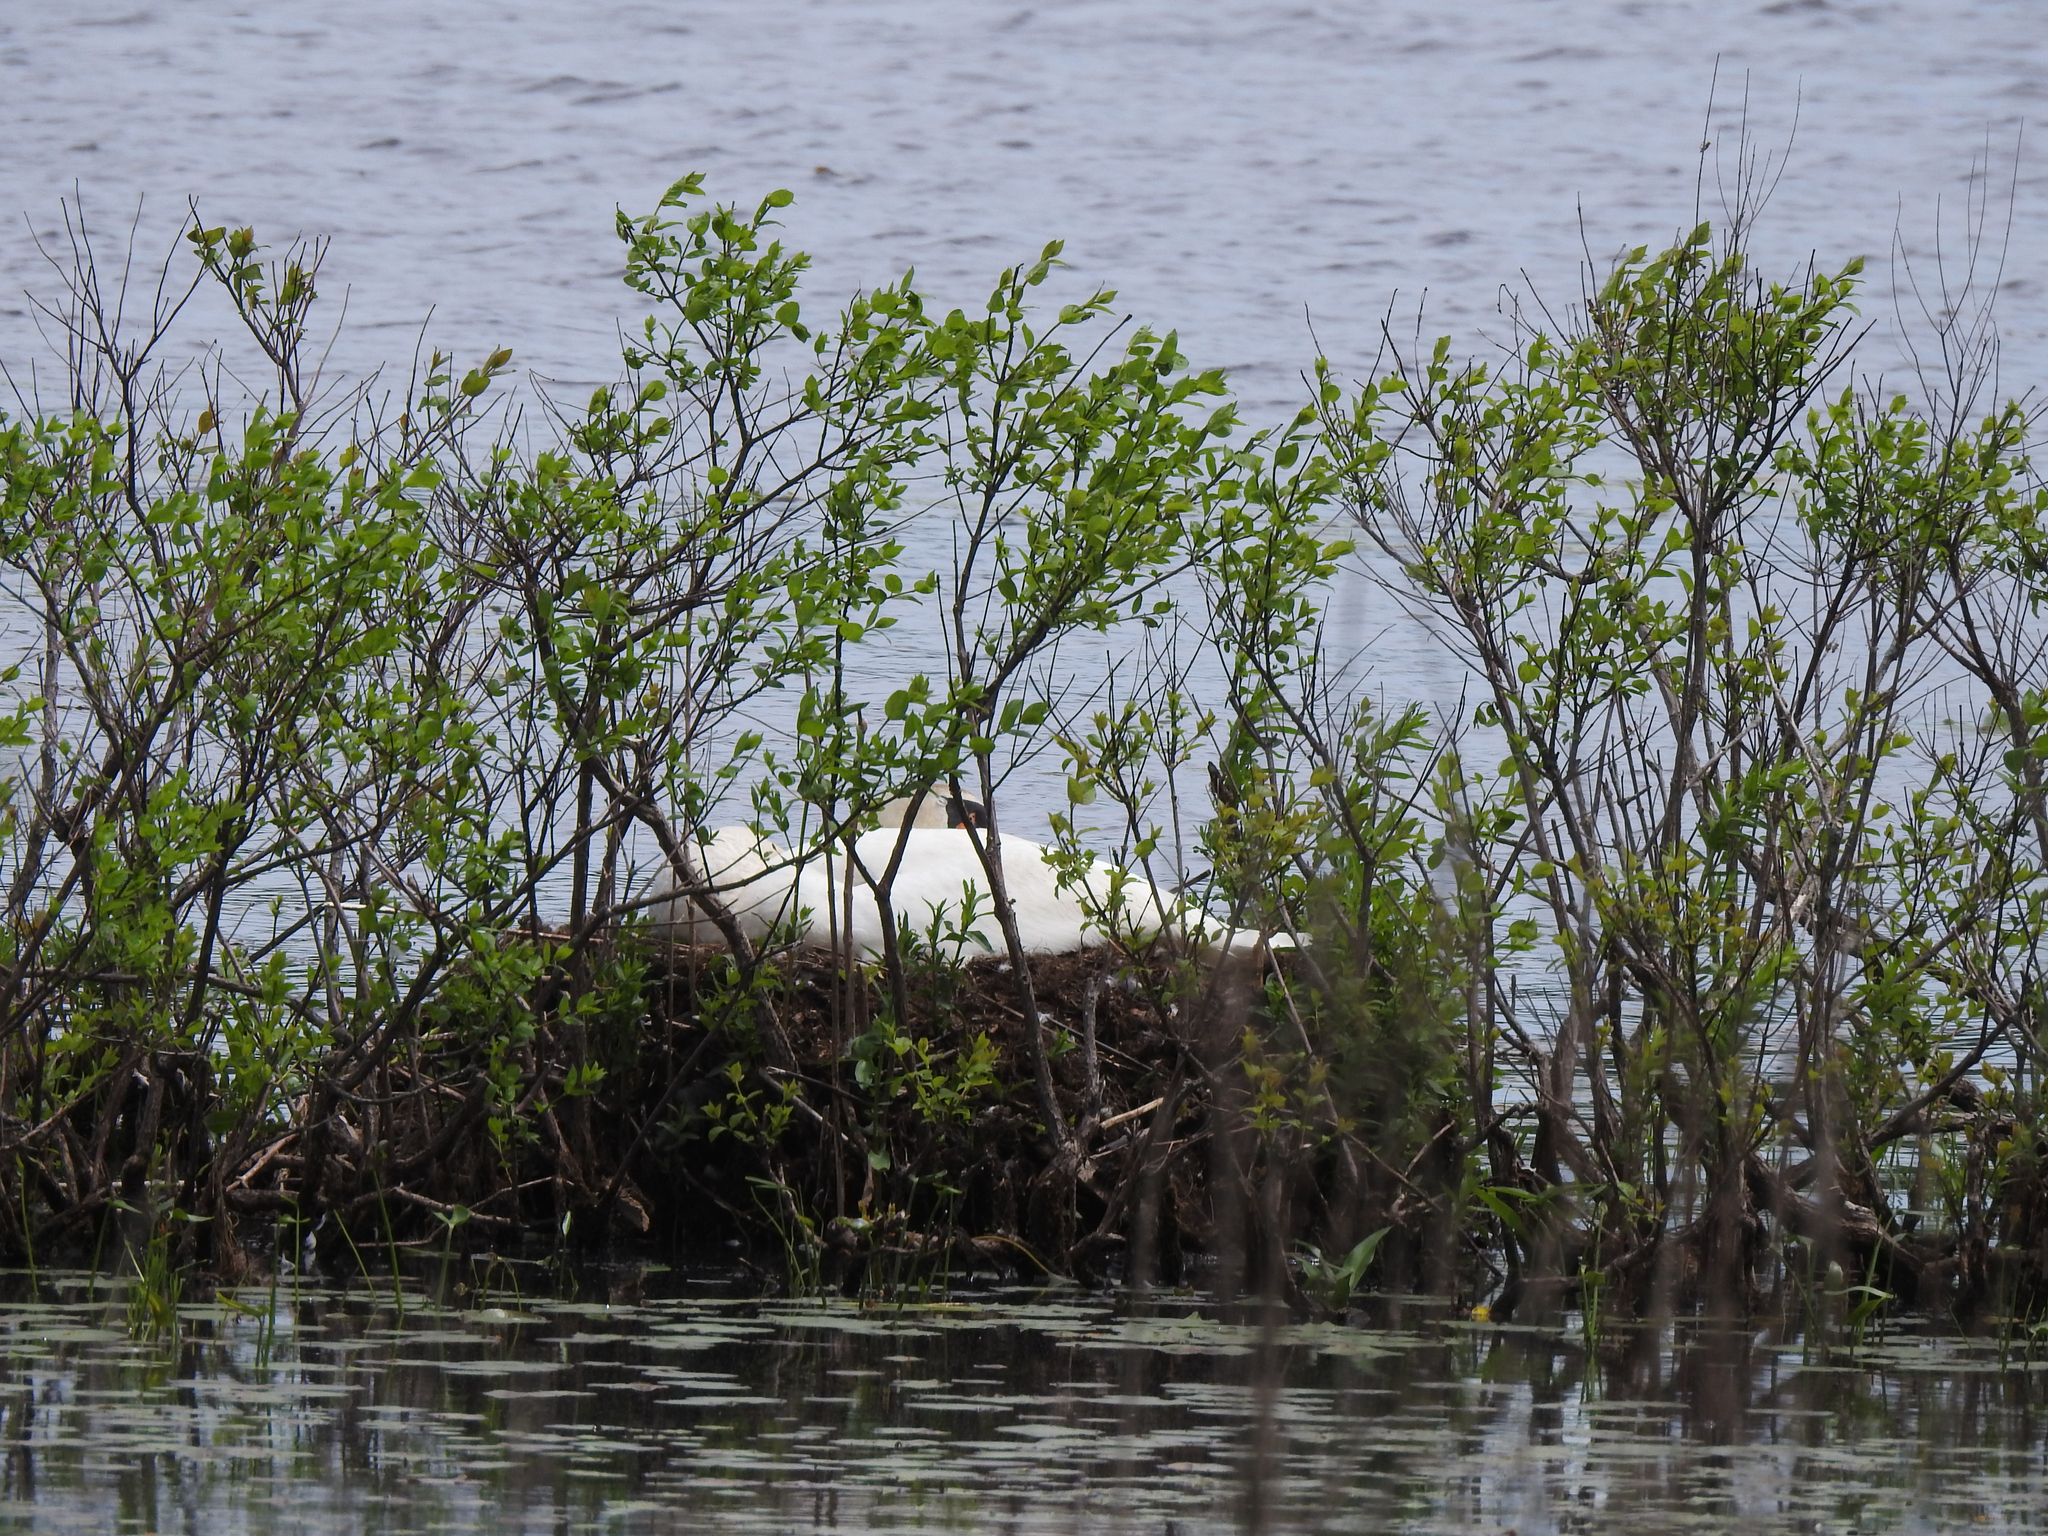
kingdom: Animalia
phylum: Chordata
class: Aves
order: Anseriformes
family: Anatidae
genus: Cygnus
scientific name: Cygnus olor
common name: Mute swan
